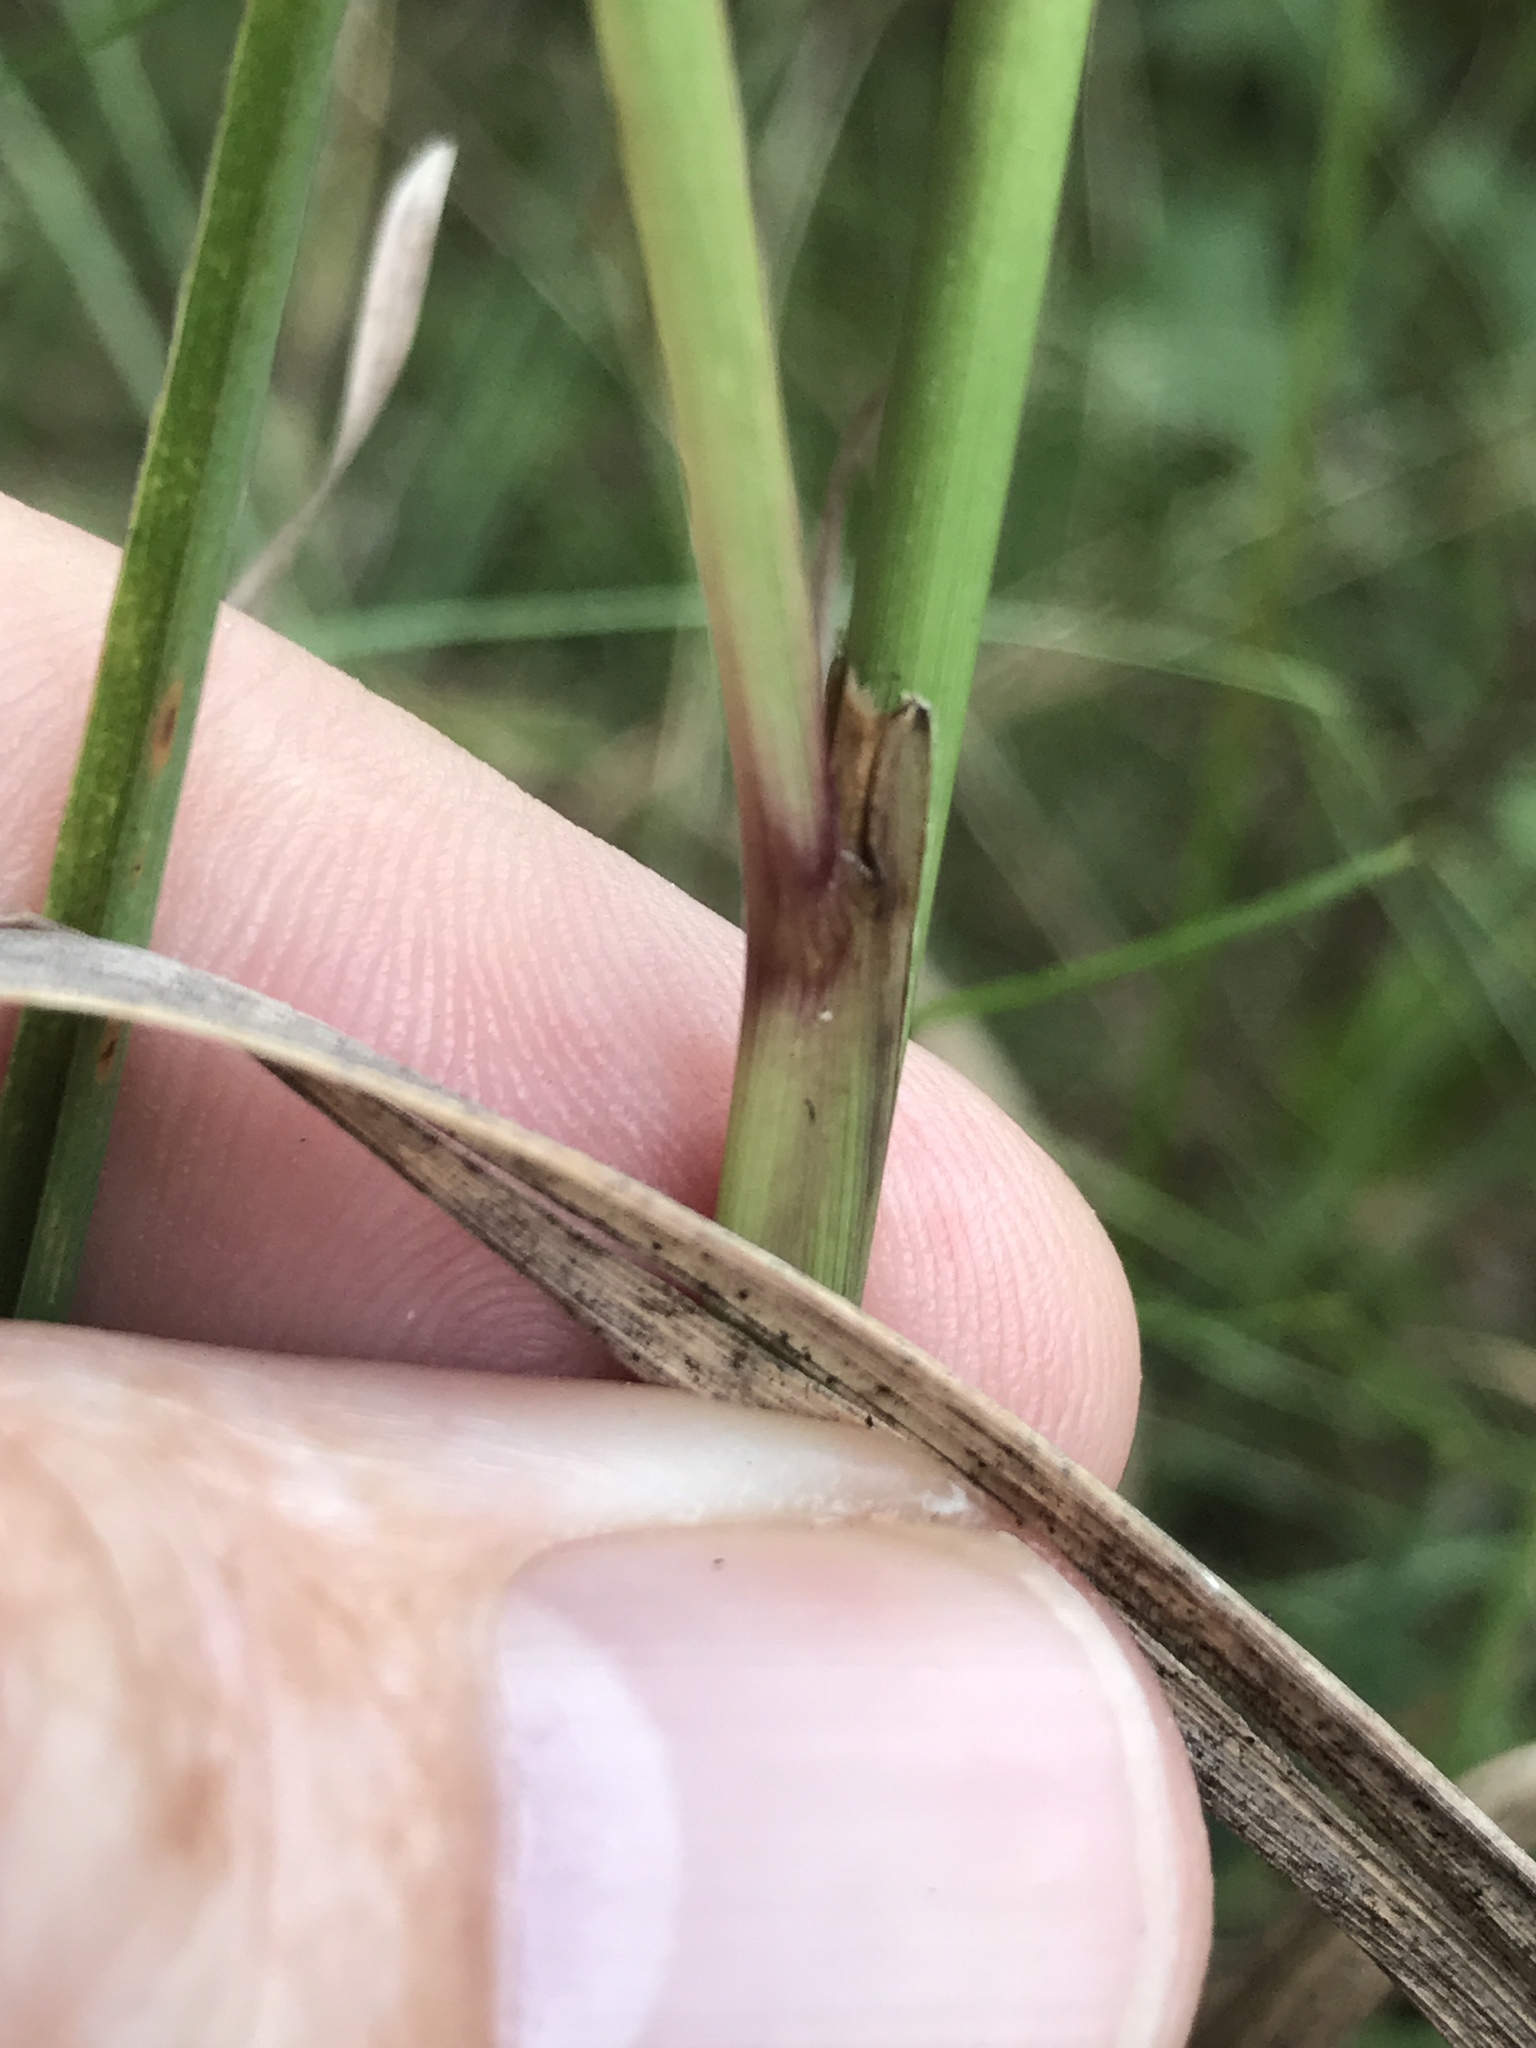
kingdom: Plantae
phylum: Tracheophyta
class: Liliopsida
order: Poales
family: Poaceae
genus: Sorghastrum
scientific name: Sorghastrum nutans
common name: Indian grass
